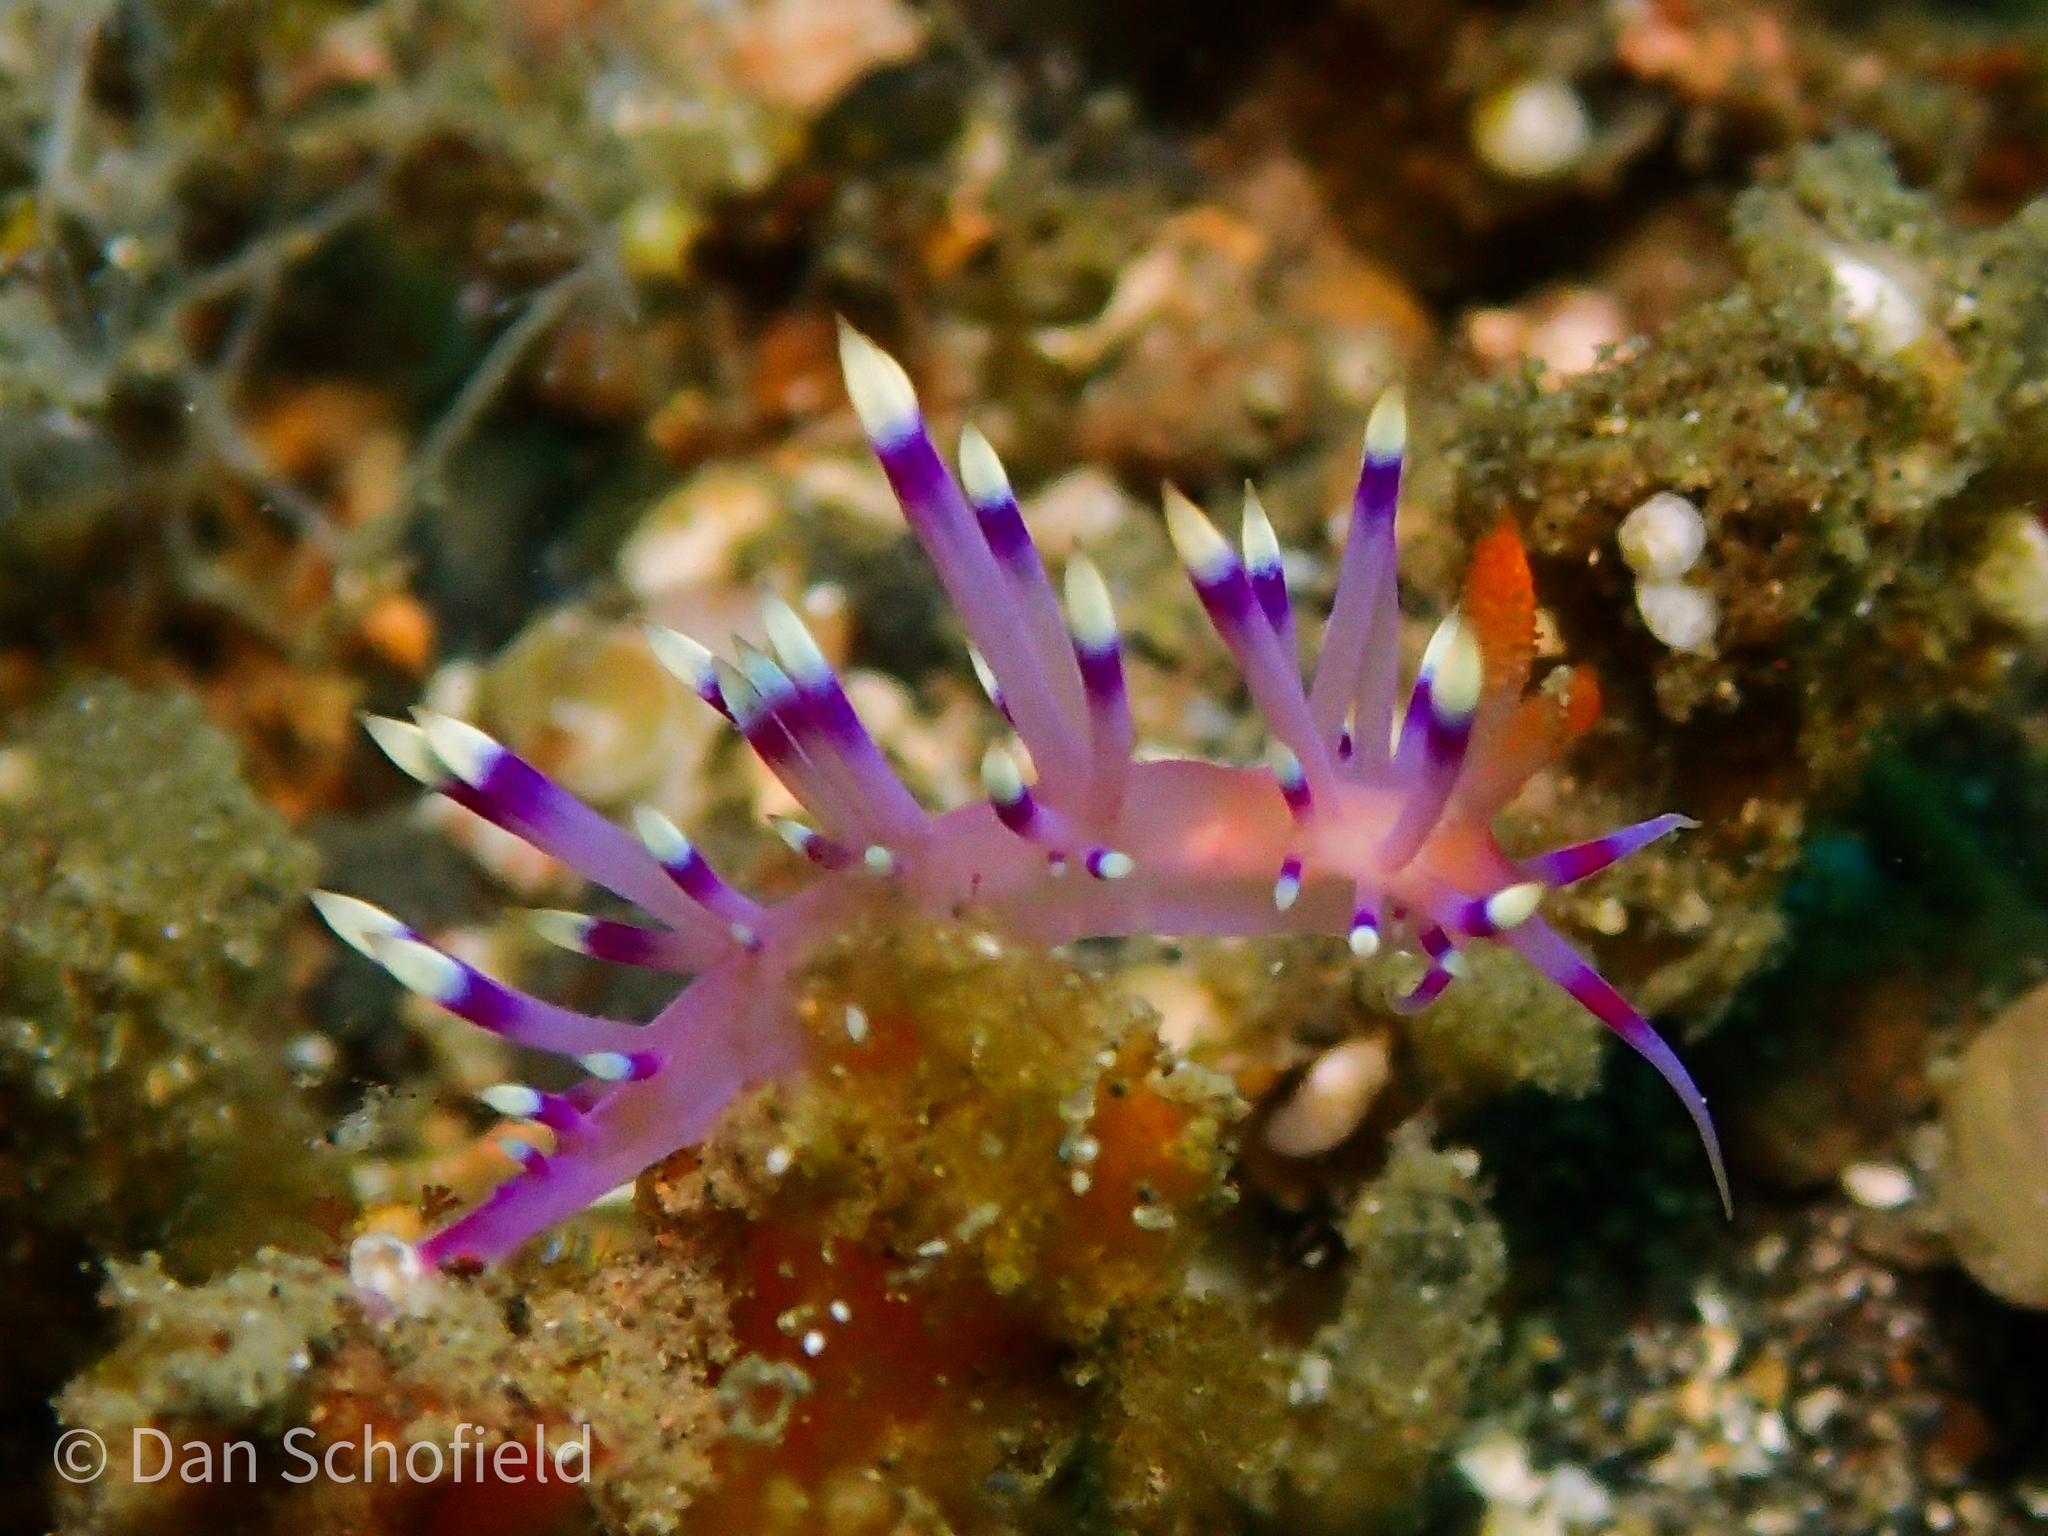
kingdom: Animalia
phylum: Mollusca
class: Gastropoda
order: Nudibranchia
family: Flabellinidae
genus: Coryphellina
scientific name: Coryphellina exoptata
